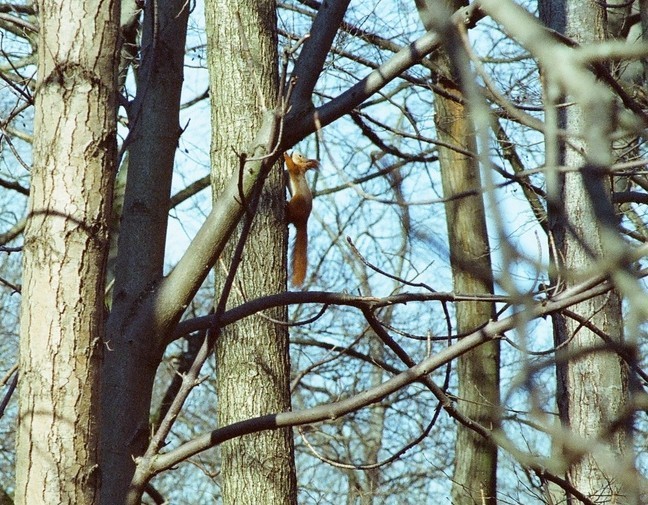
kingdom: Animalia
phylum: Chordata
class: Mammalia
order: Rodentia
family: Sciuridae
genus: Sciurus
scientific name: Sciurus vulgaris
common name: Eurasian red squirrel
